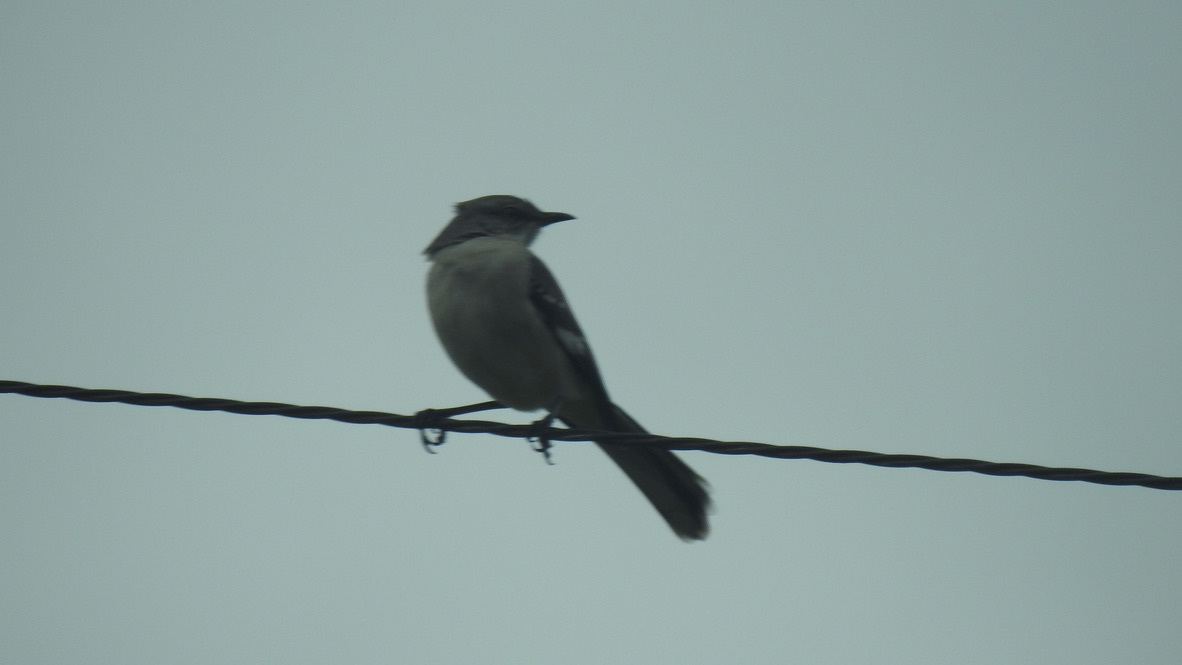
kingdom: Animalia
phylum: Chordata
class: Aves
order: Passeriformes
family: Mimidae
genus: Mimus
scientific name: Mimus polyglottos
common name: Northern mockingbird
